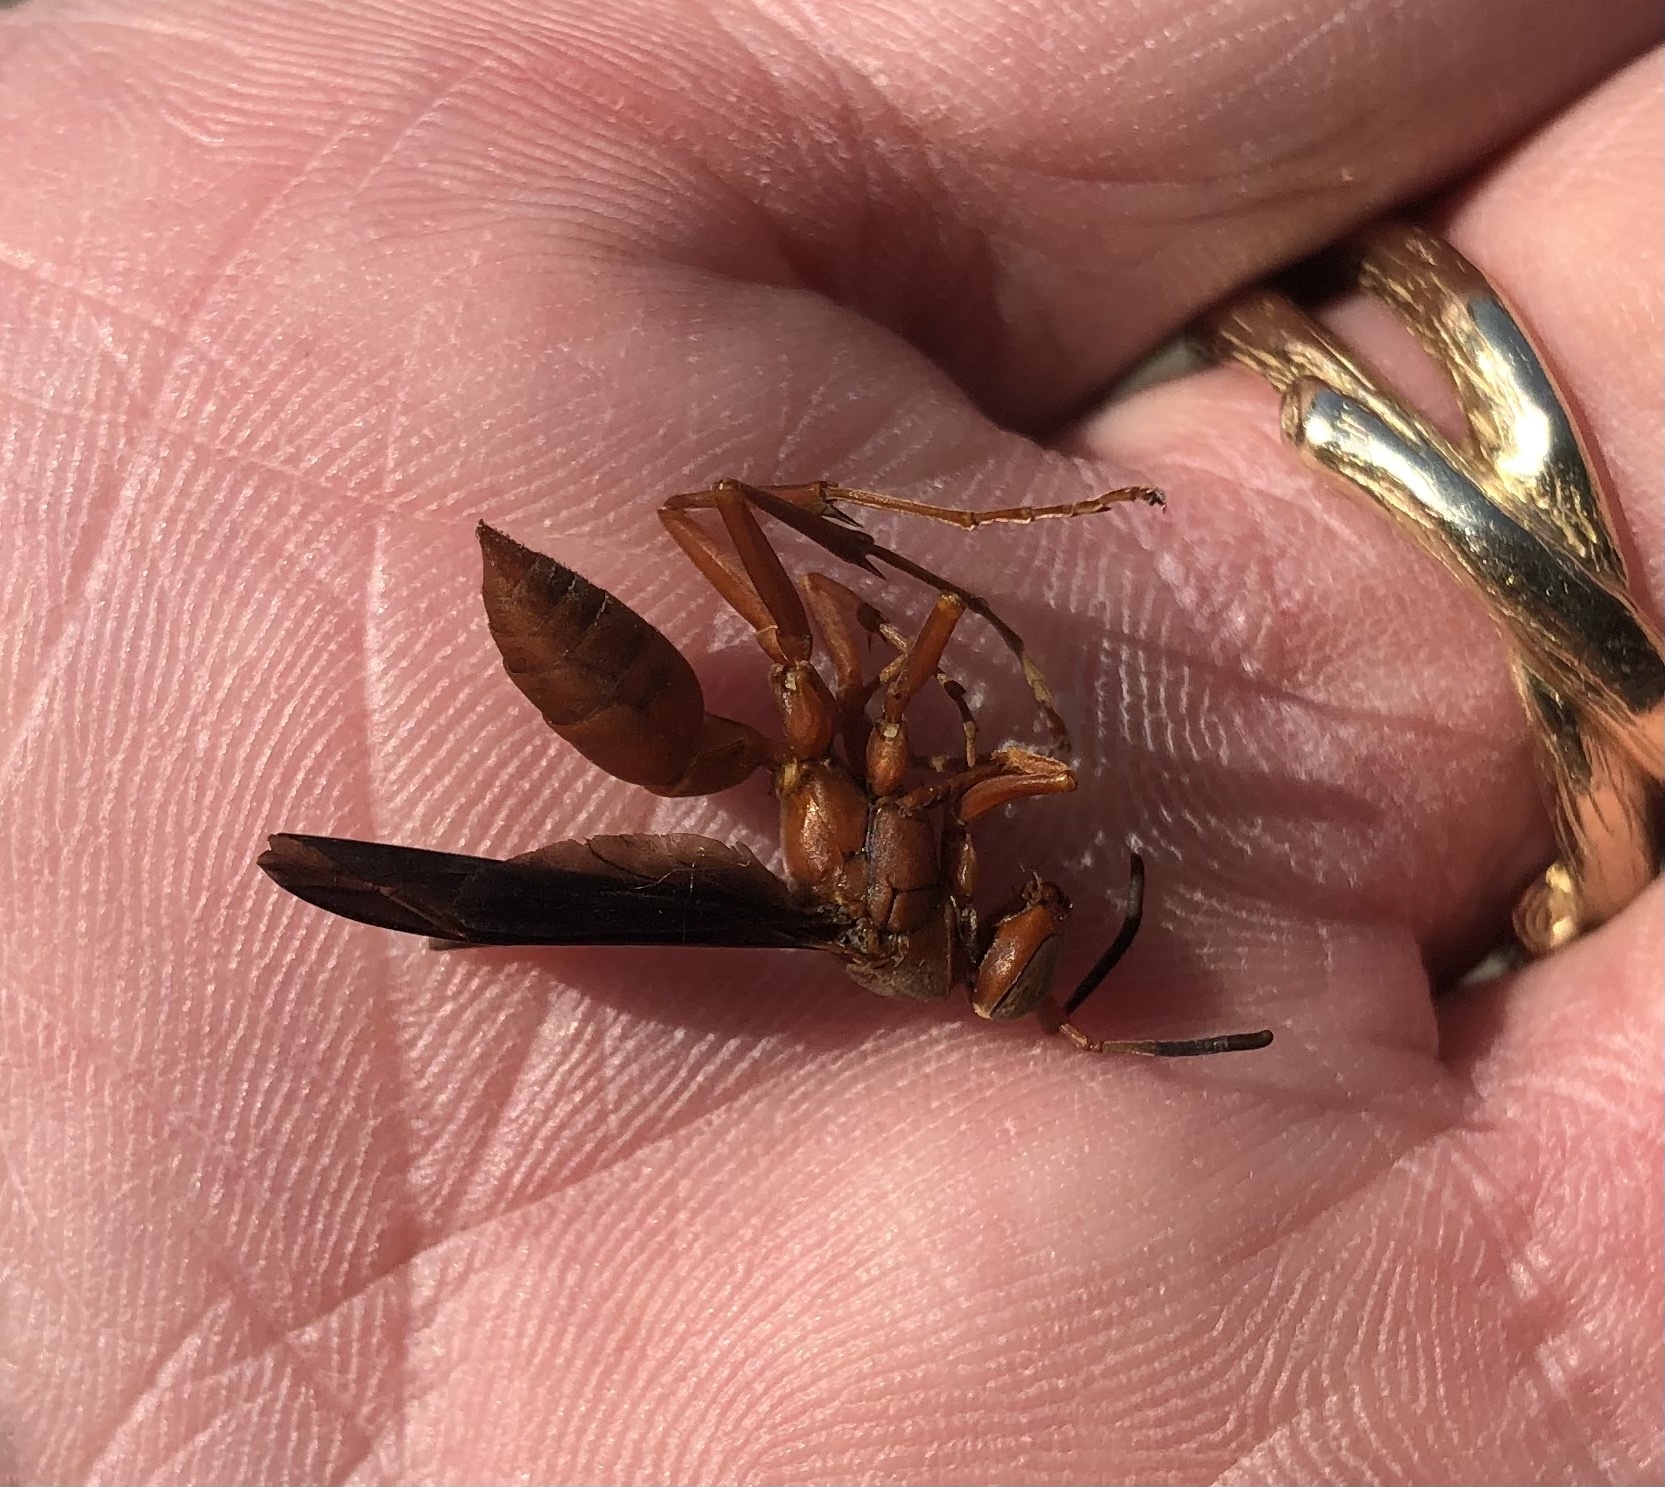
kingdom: Animalia
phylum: Arthropoda
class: Insecta
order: Hymenoptera
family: Vespidae
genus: Fuscopolistes
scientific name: Fuscopolistes
